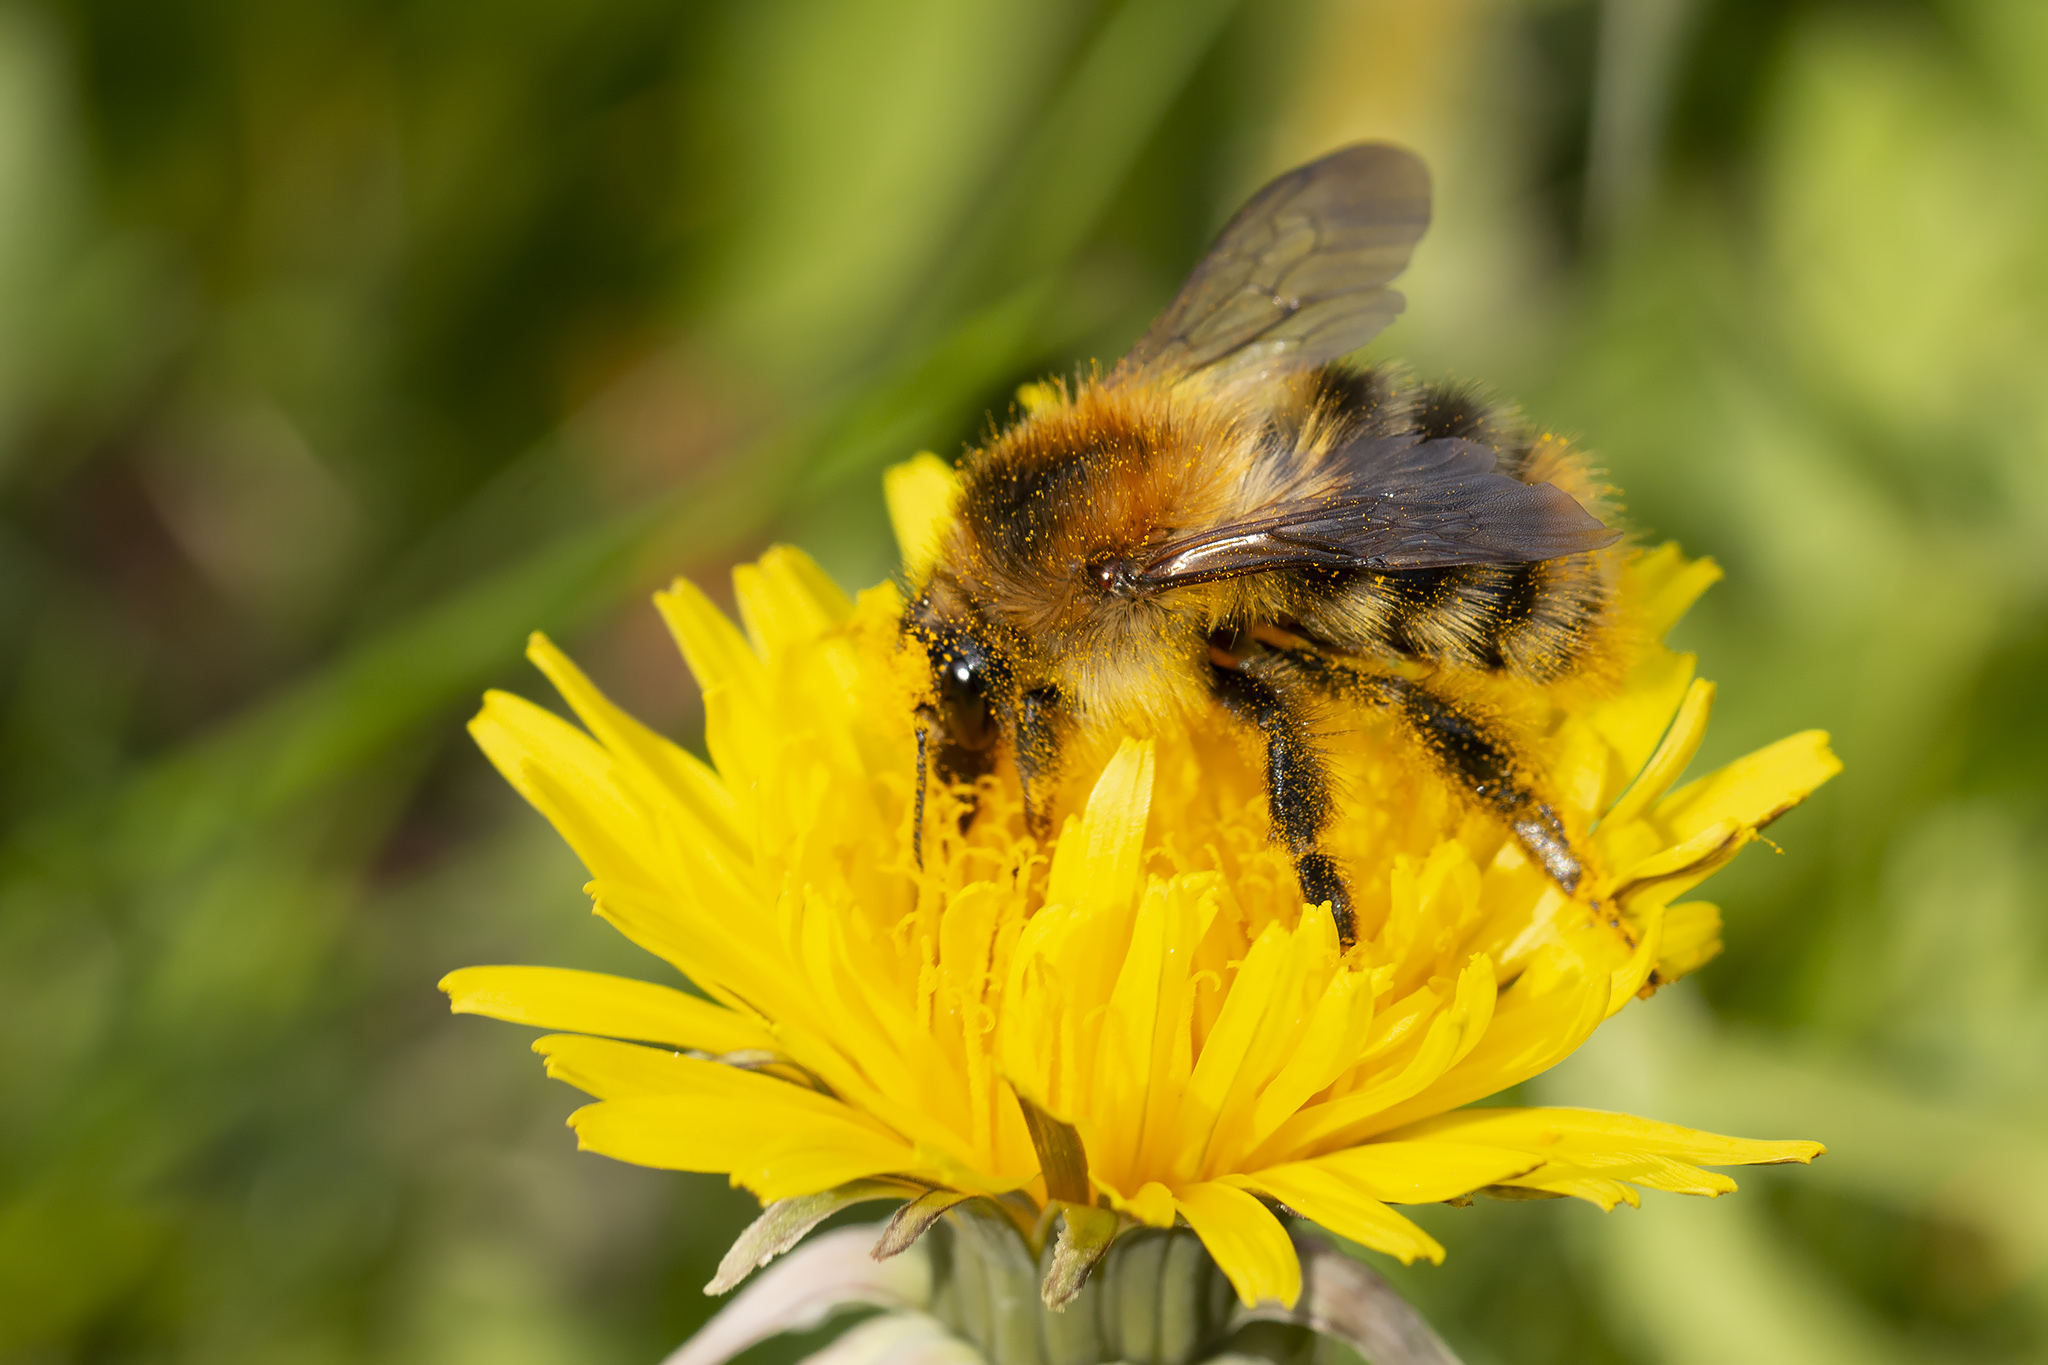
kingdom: Animalia
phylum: Arthropoda
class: Insecta
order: Hymenoptera
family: Apidae
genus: Bombus
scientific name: Bombus pascuorum
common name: Common carder bee
